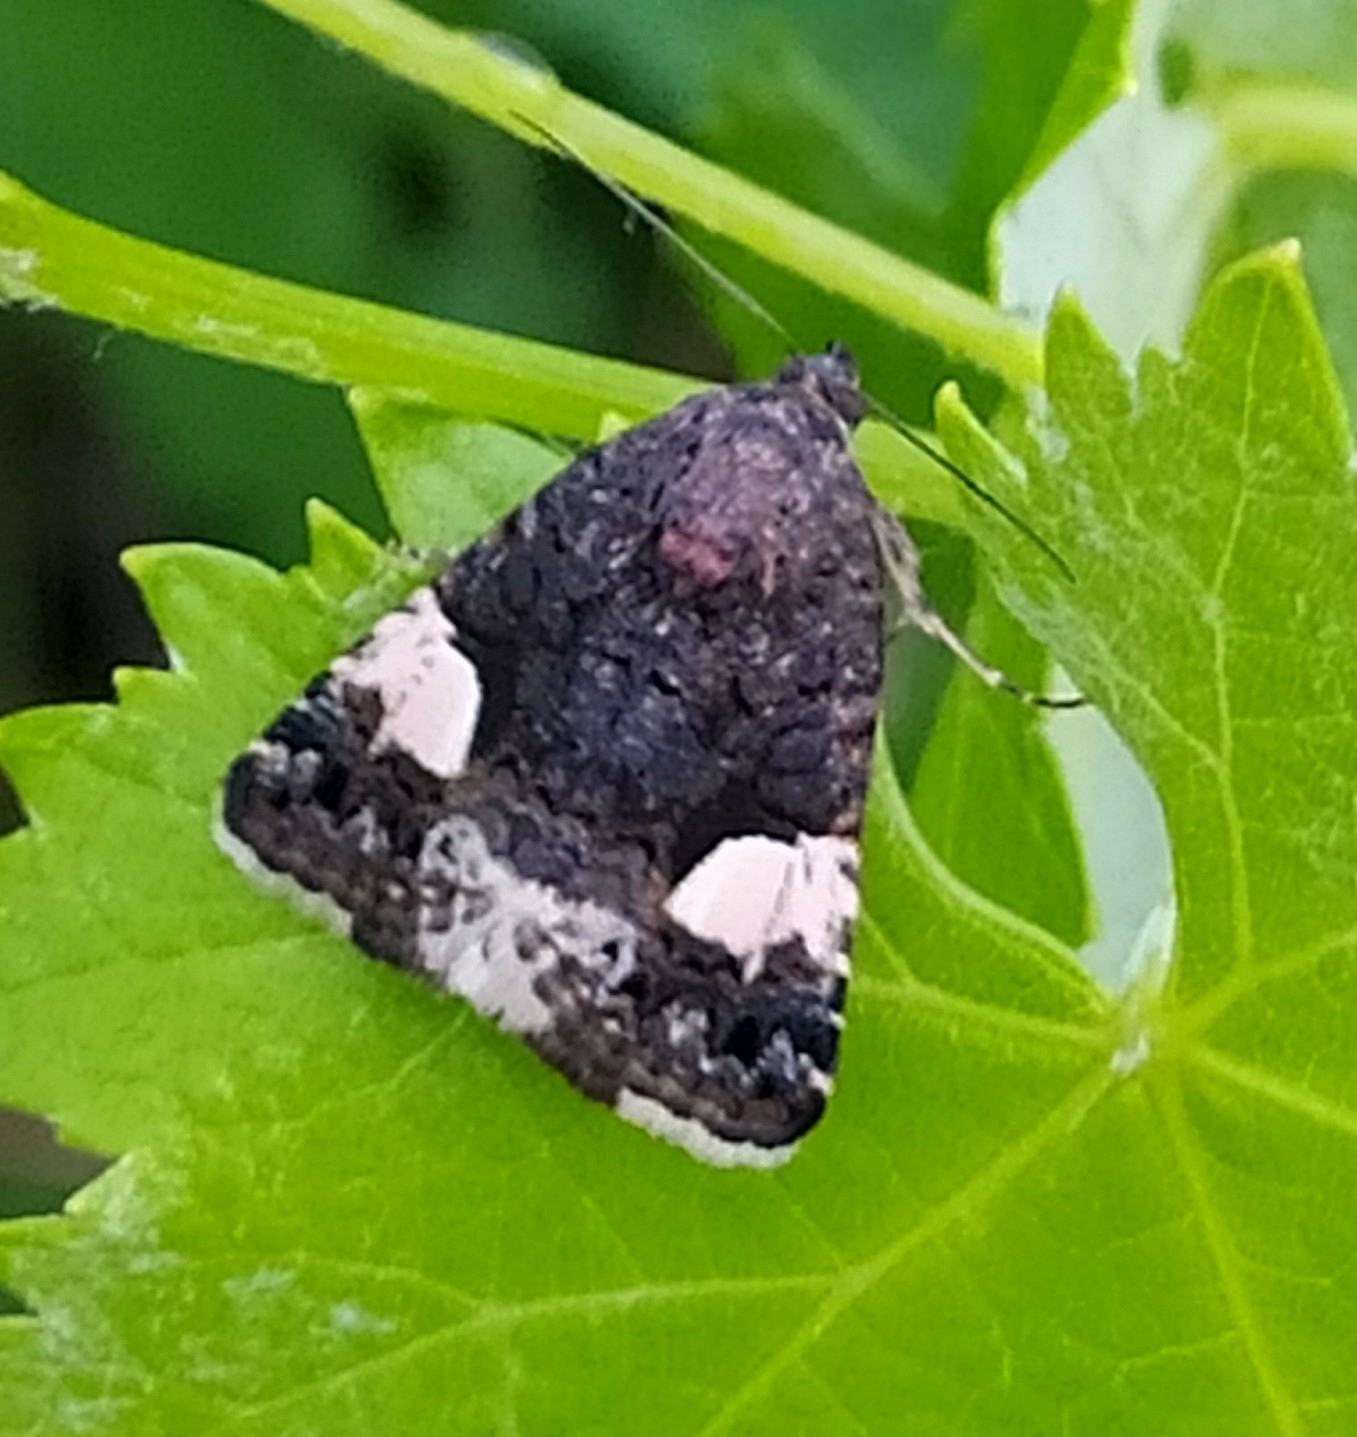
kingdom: Animalia
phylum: Arthropoda
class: Insecta
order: Lepidoptera
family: Erebidae
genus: Tyta
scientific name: Tyta luctuosa
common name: Four-spotted
